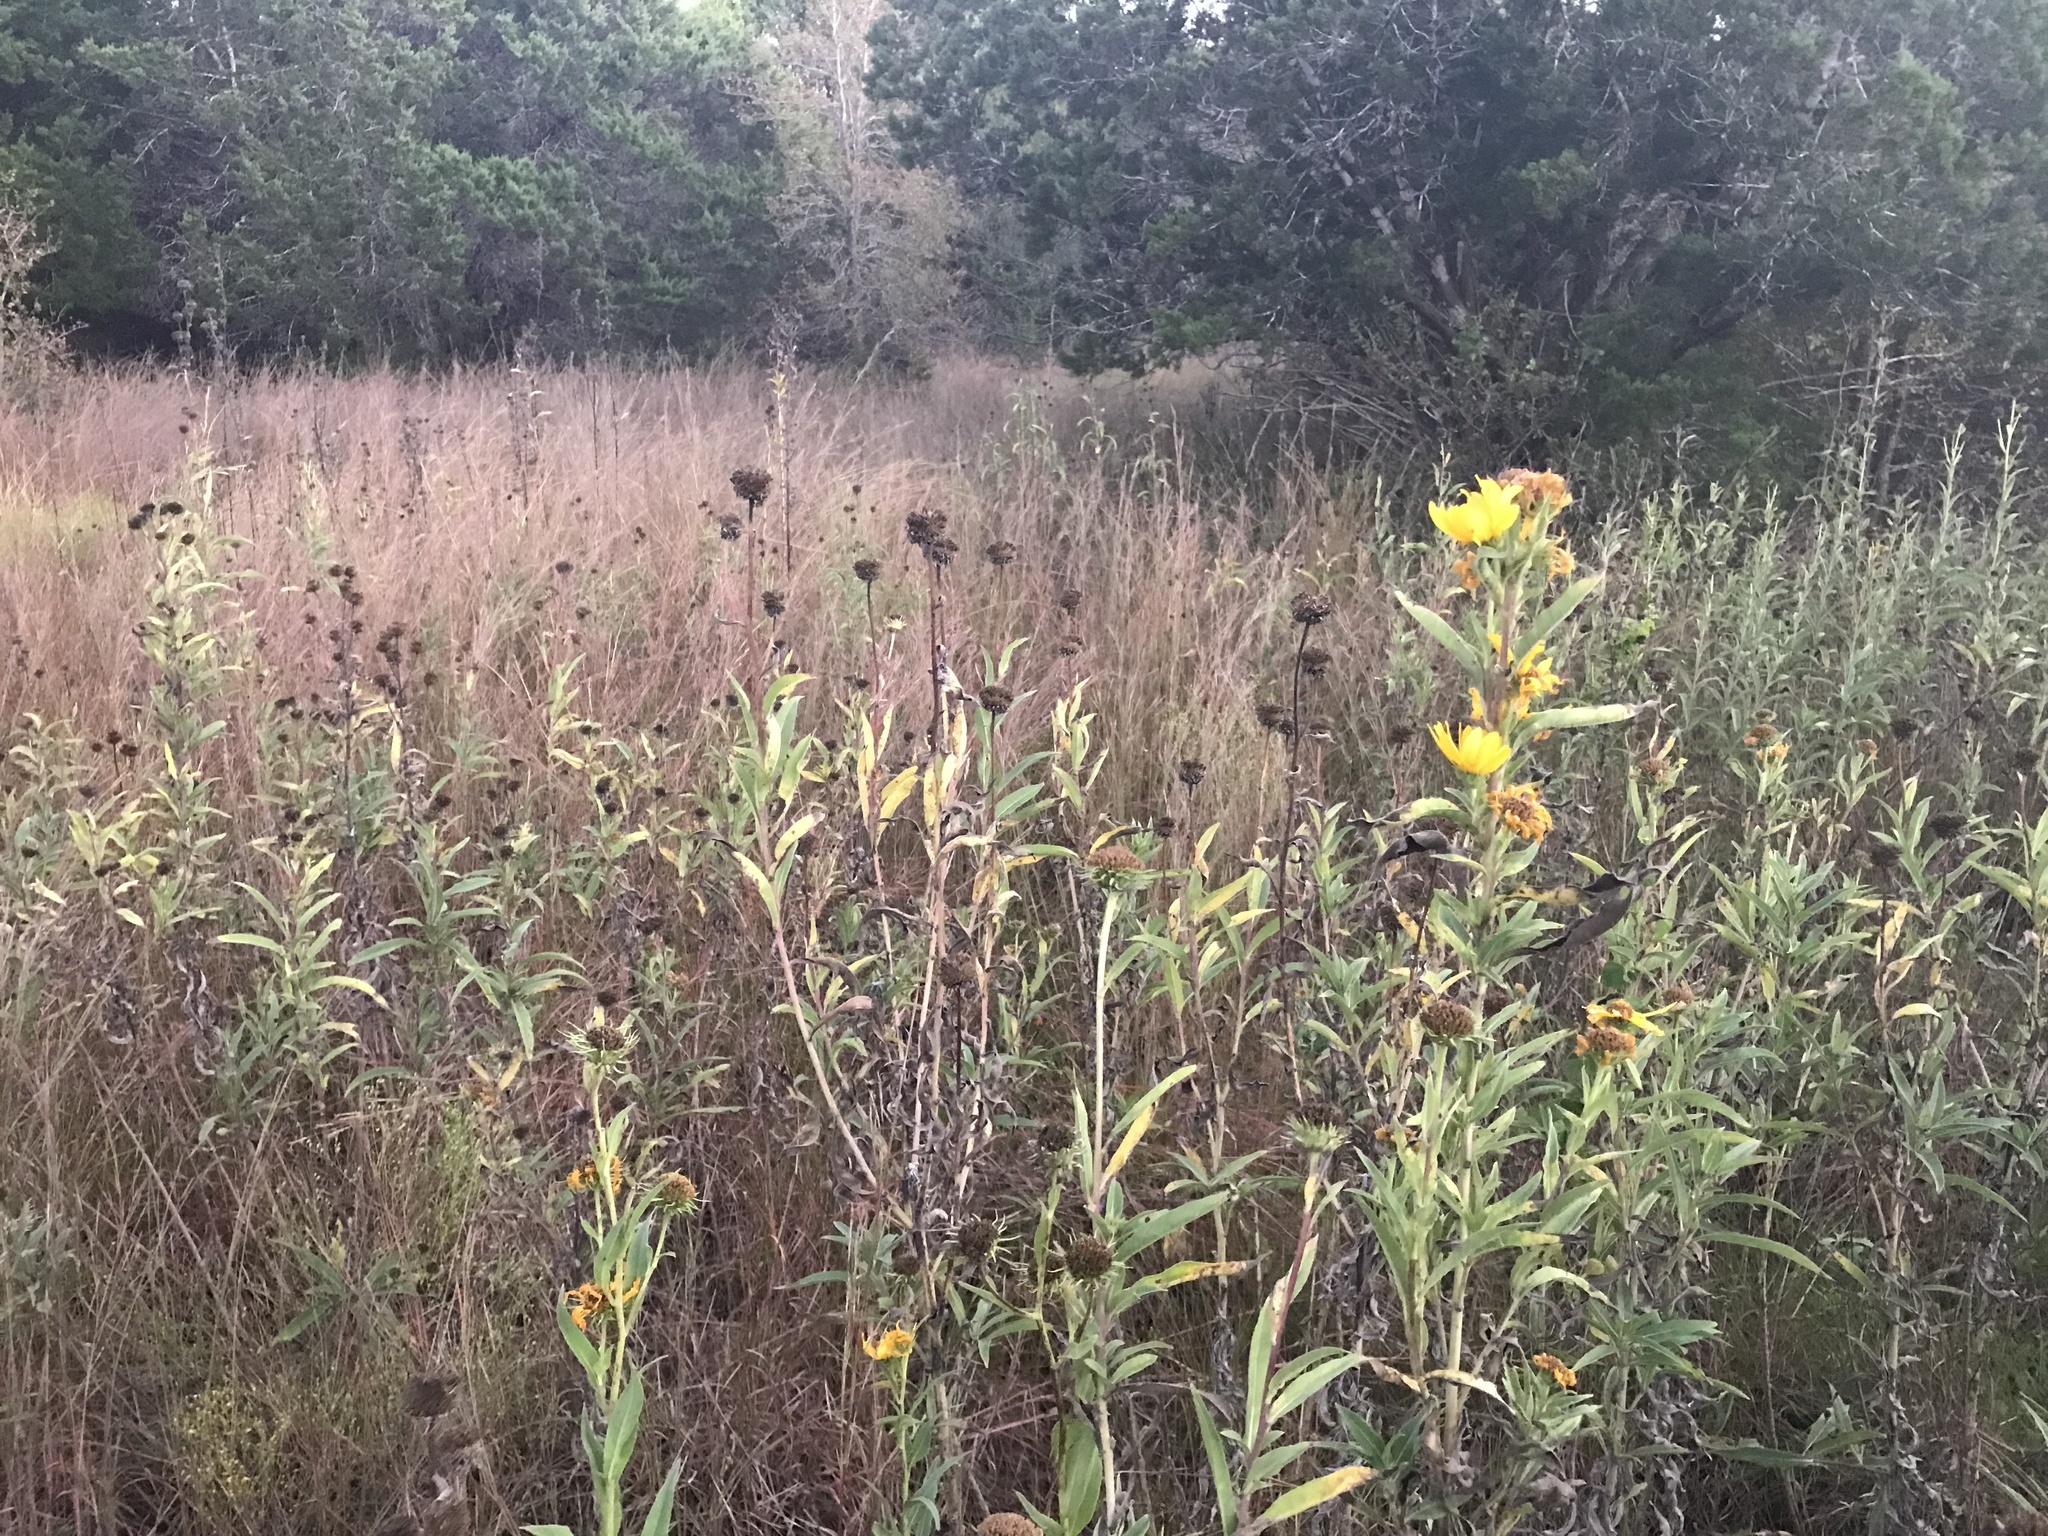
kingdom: Plantae
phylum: Tracheophyta
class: Magnoliopsida
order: Asterales
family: Asteraceae
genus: Helianthus
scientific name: Helianthus maximiliani
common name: Maximilian's sunflower
